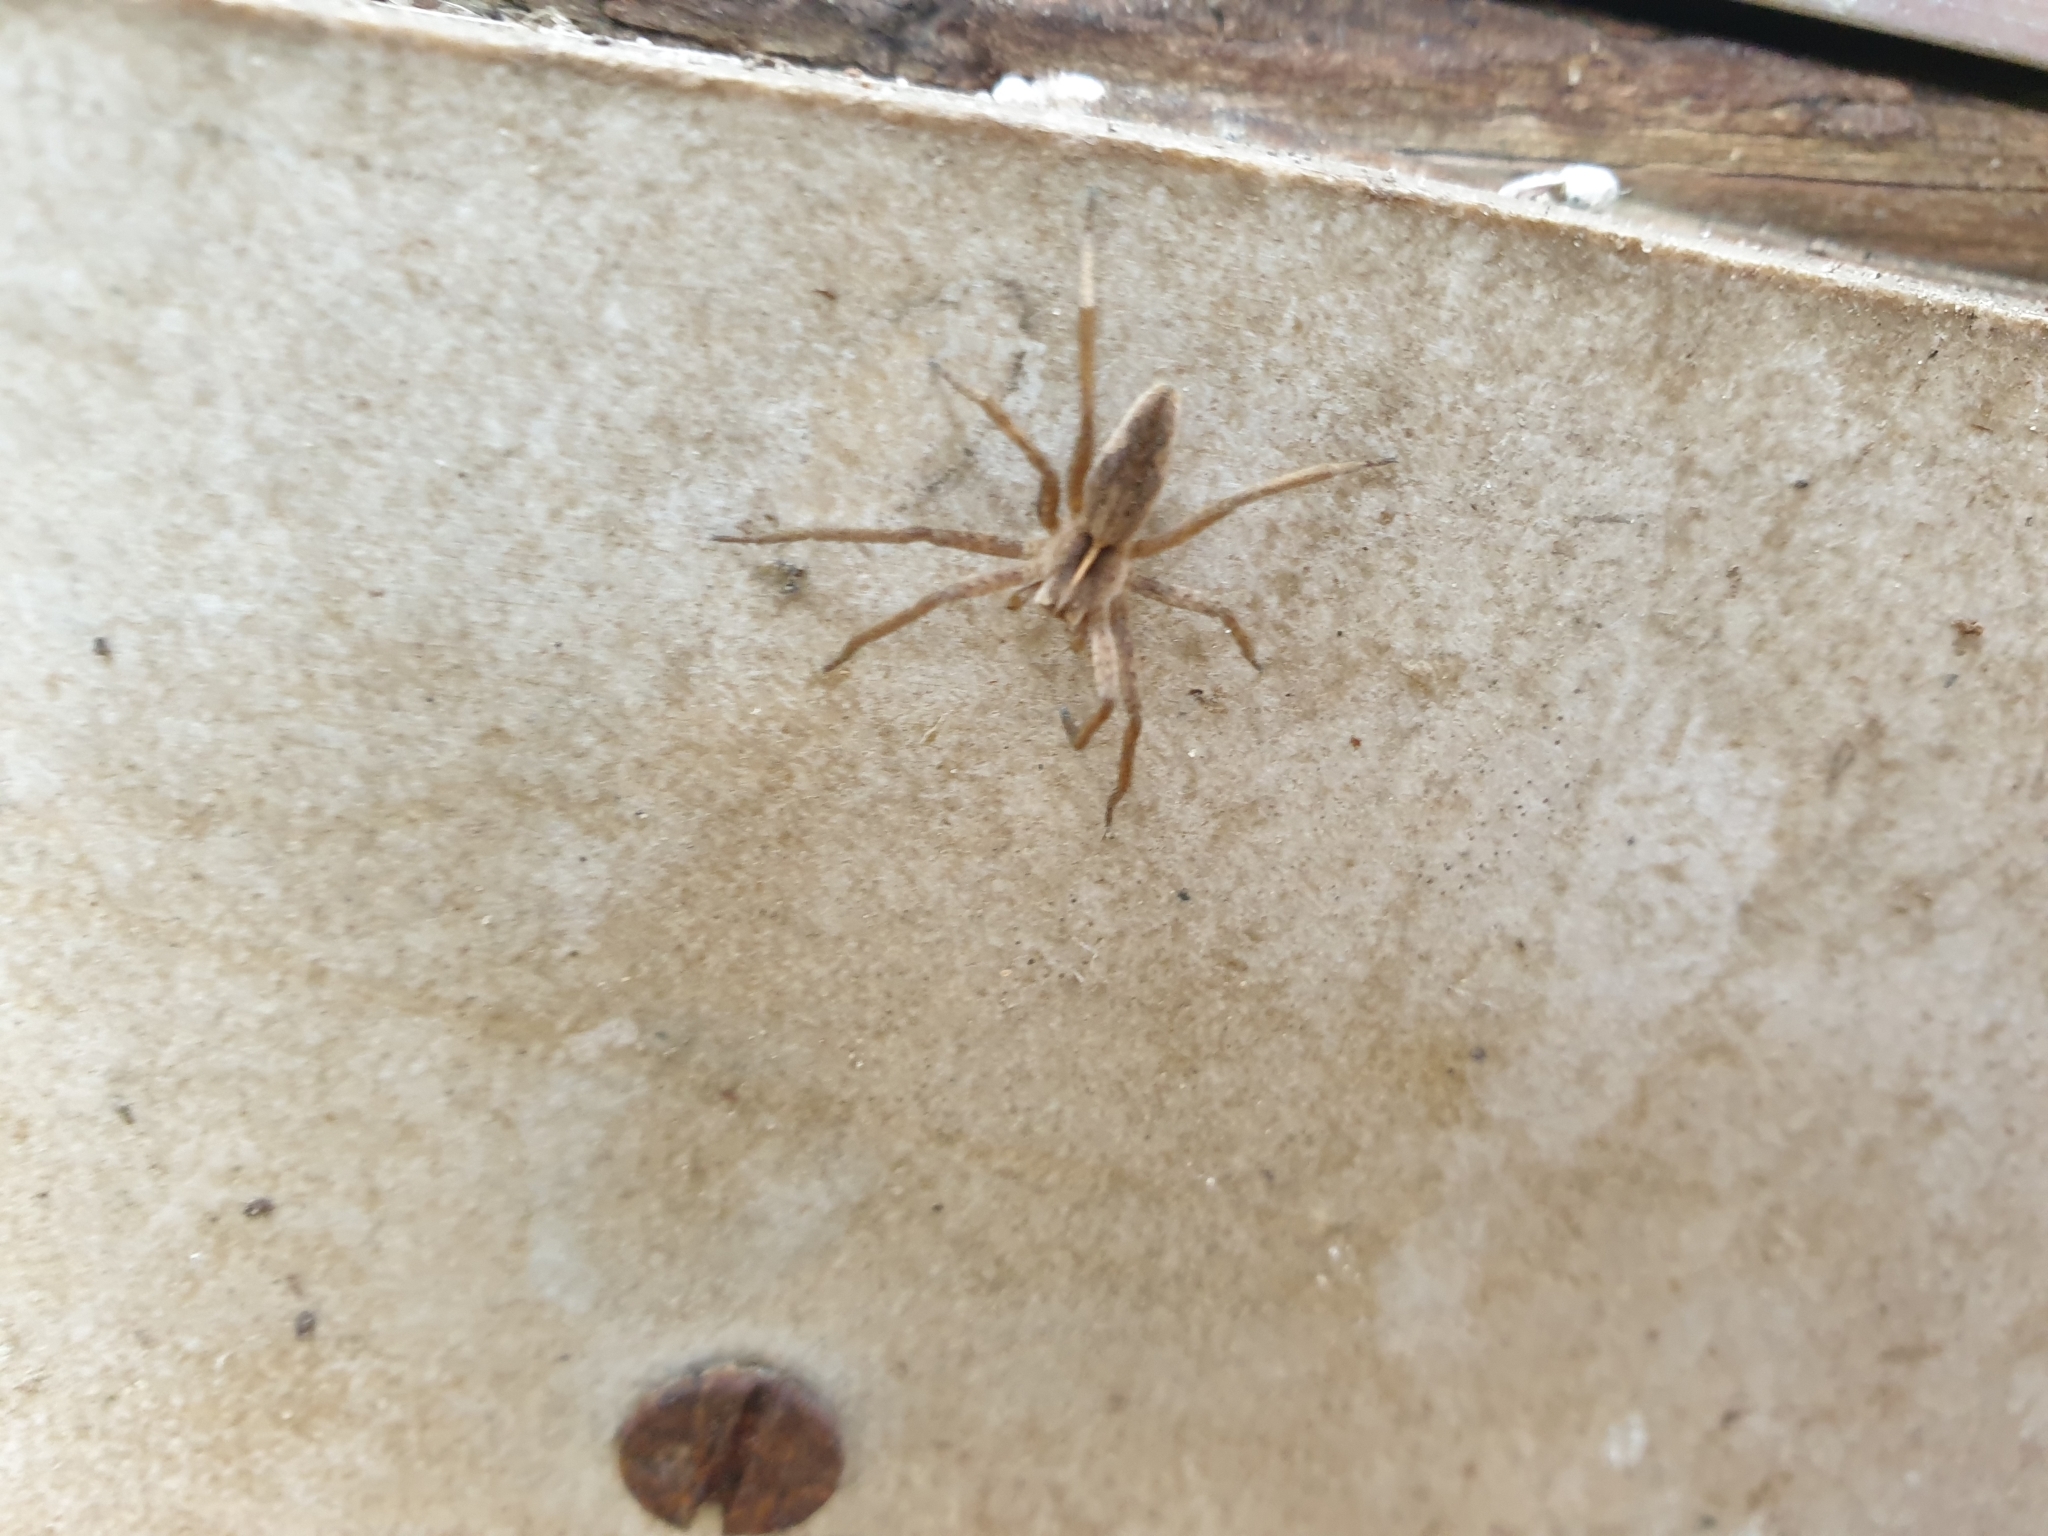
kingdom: Animalia
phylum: Arthropoda
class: Arachnida
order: Araneae
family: Pisauridae
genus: Pisaura
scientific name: Pisaura mirabilis
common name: Tent spider
